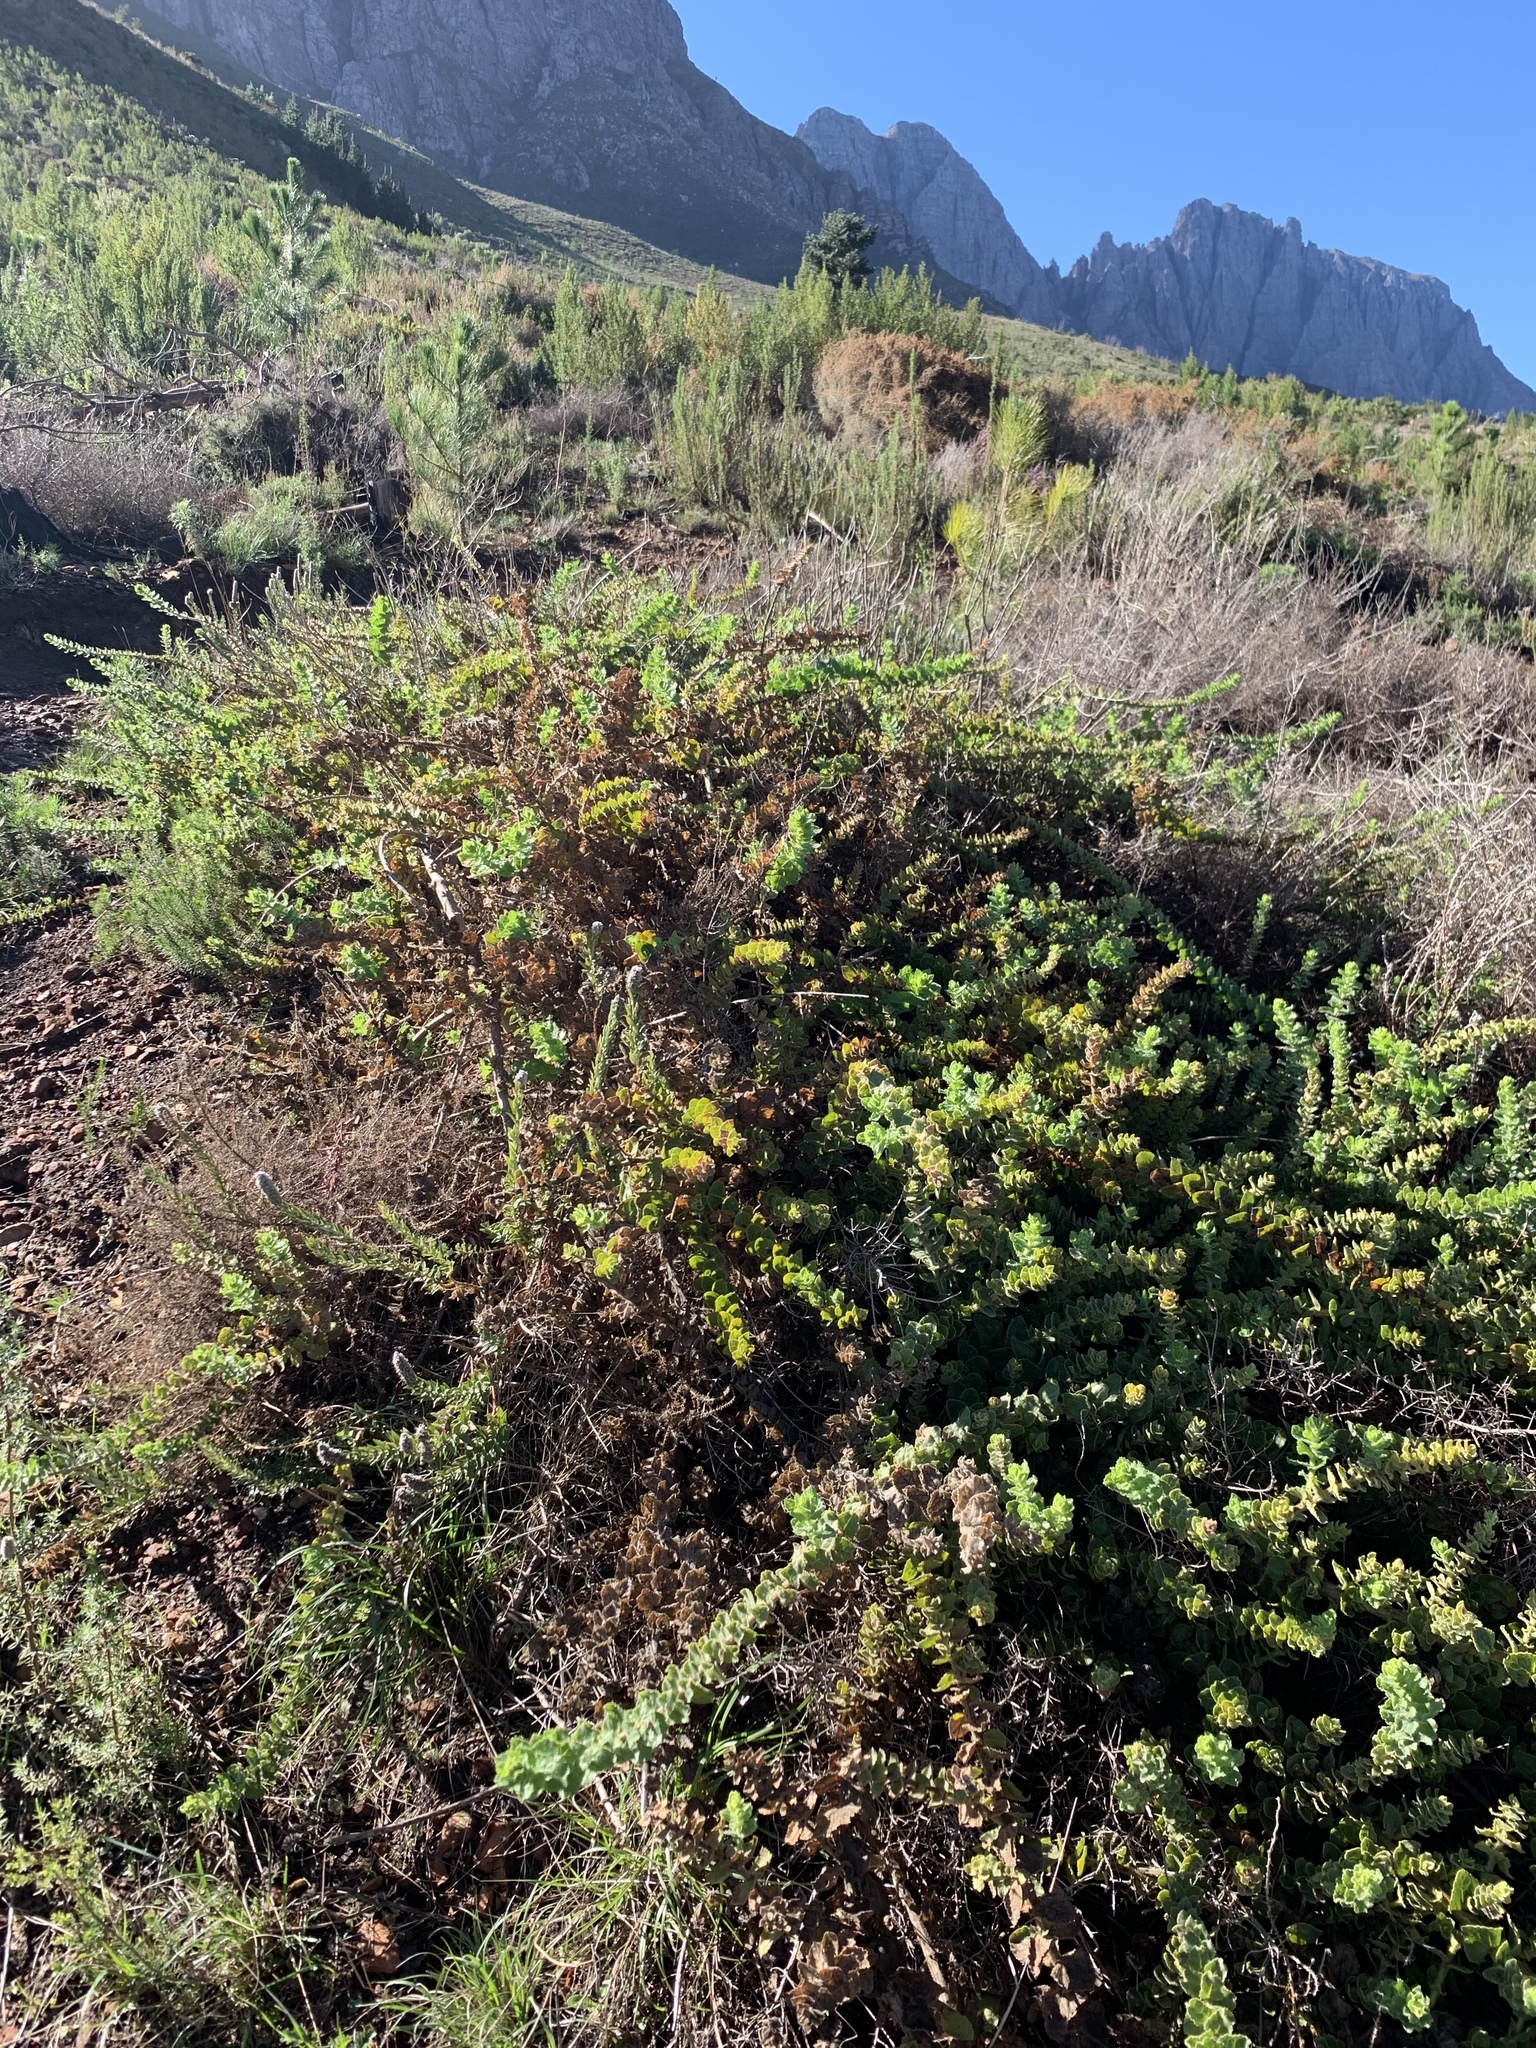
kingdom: Plantae
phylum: Tracheophyta
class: Magnoliopsida
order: Lamiales
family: Scrophulariaceae
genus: Oftia
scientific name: Oftia africana
